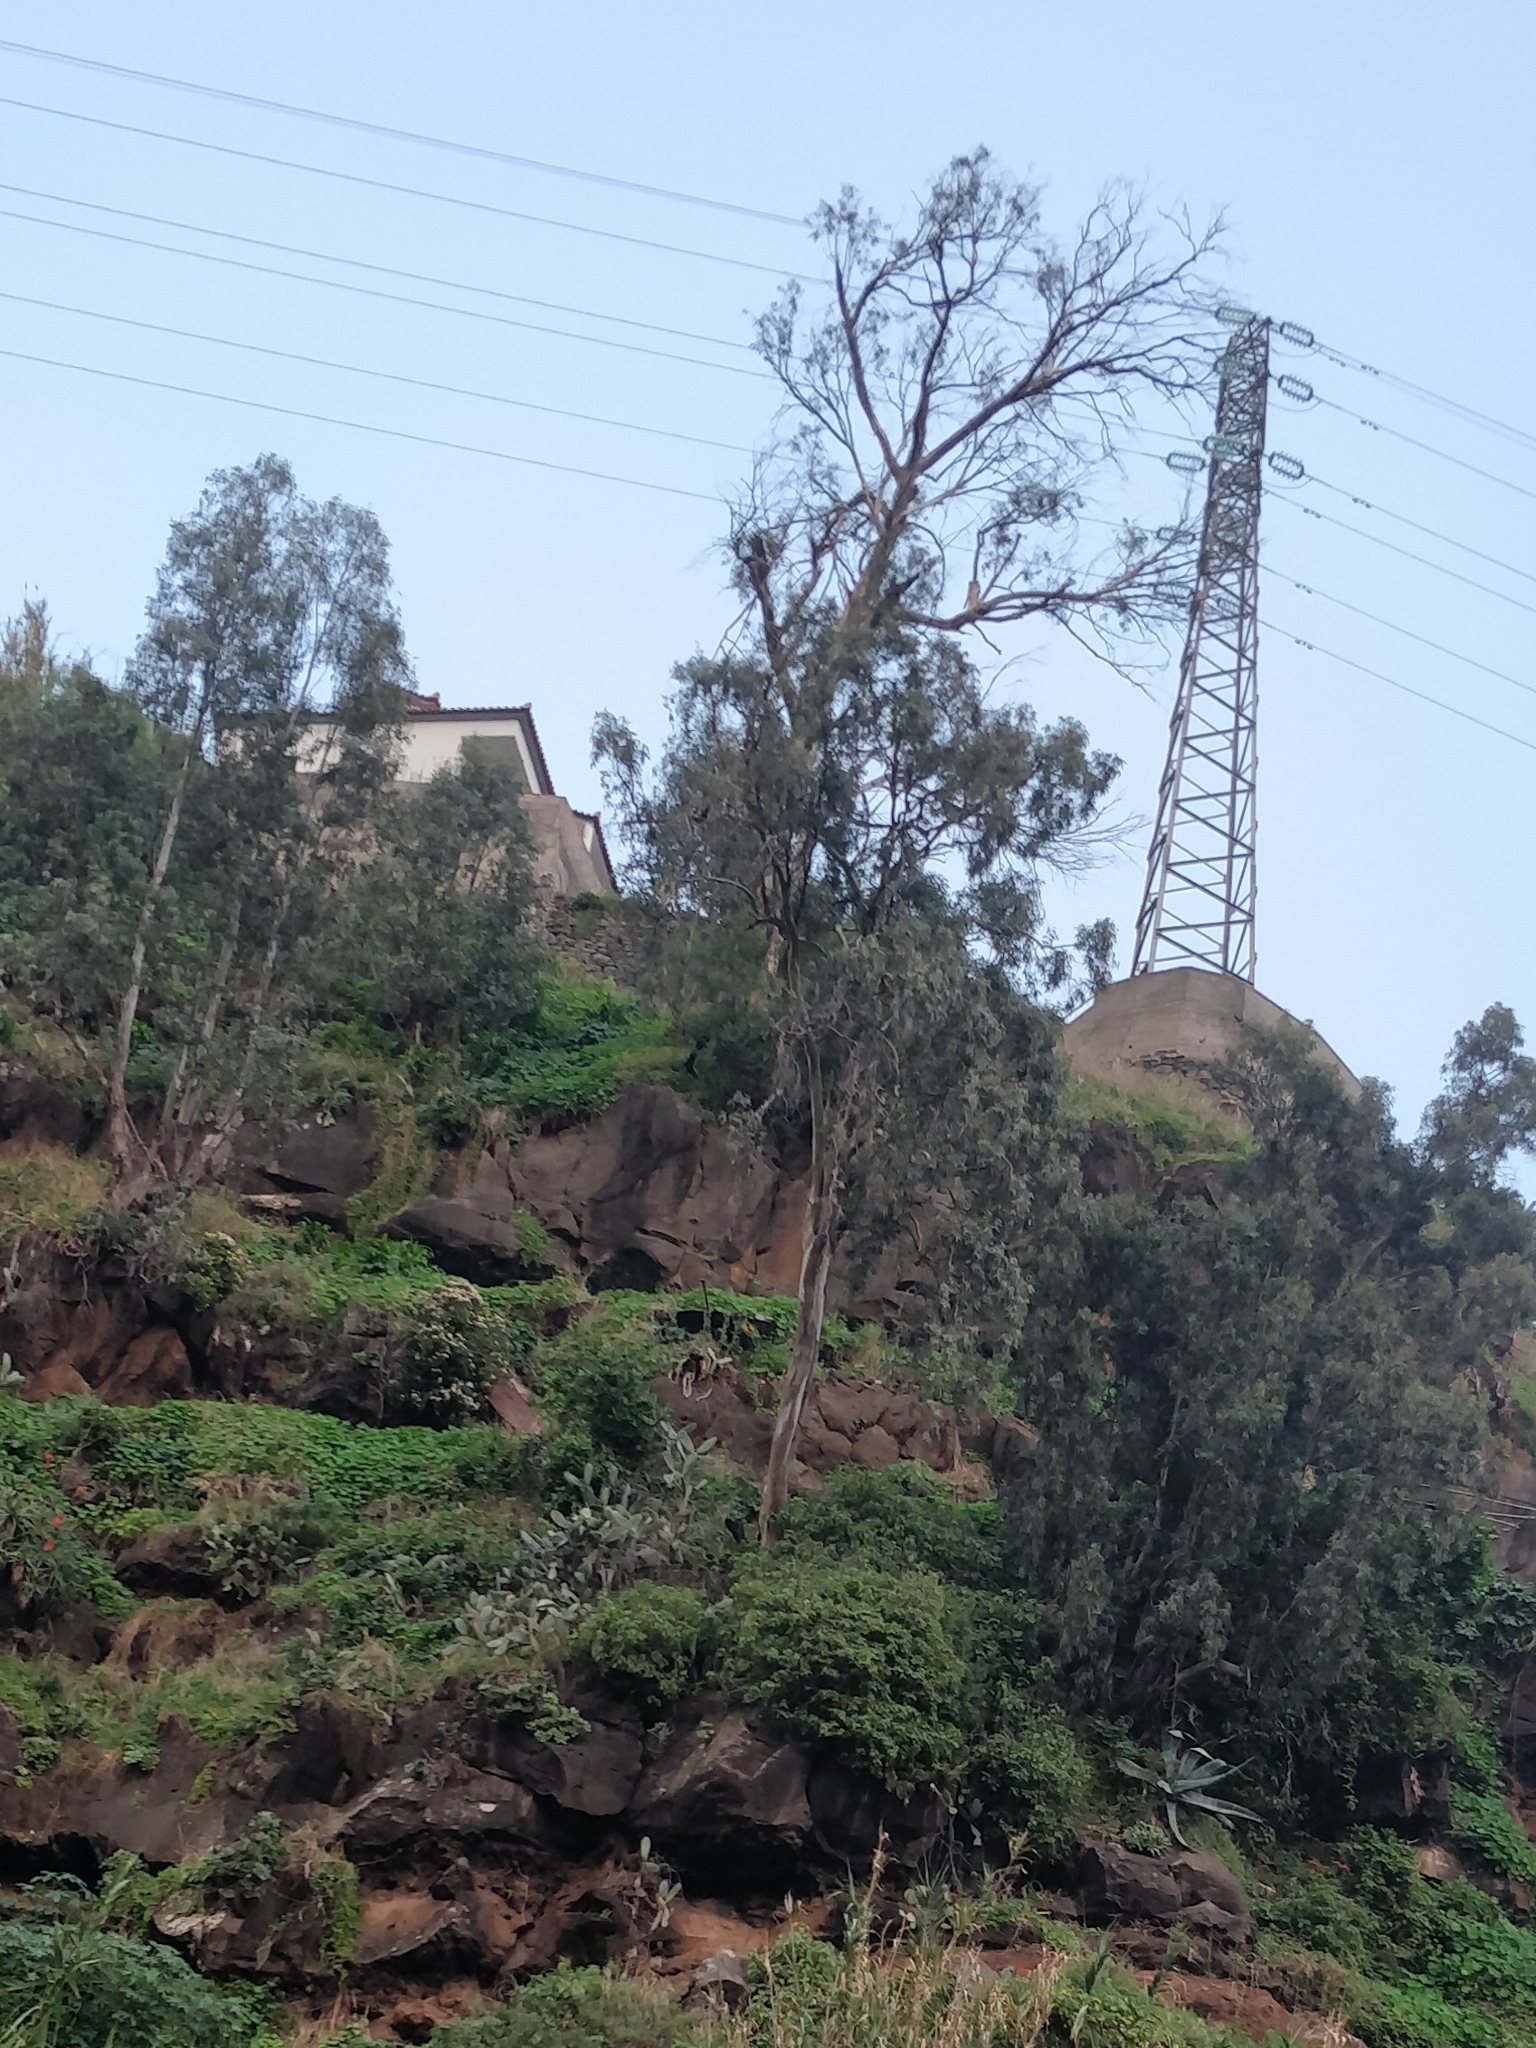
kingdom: Plantae
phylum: Tracheophyta
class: Magnoliopsida
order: Myrtales
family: Myrtaceae
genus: Eucalyptus
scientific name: Eucalyptus globulus
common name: Southern blue-gum
